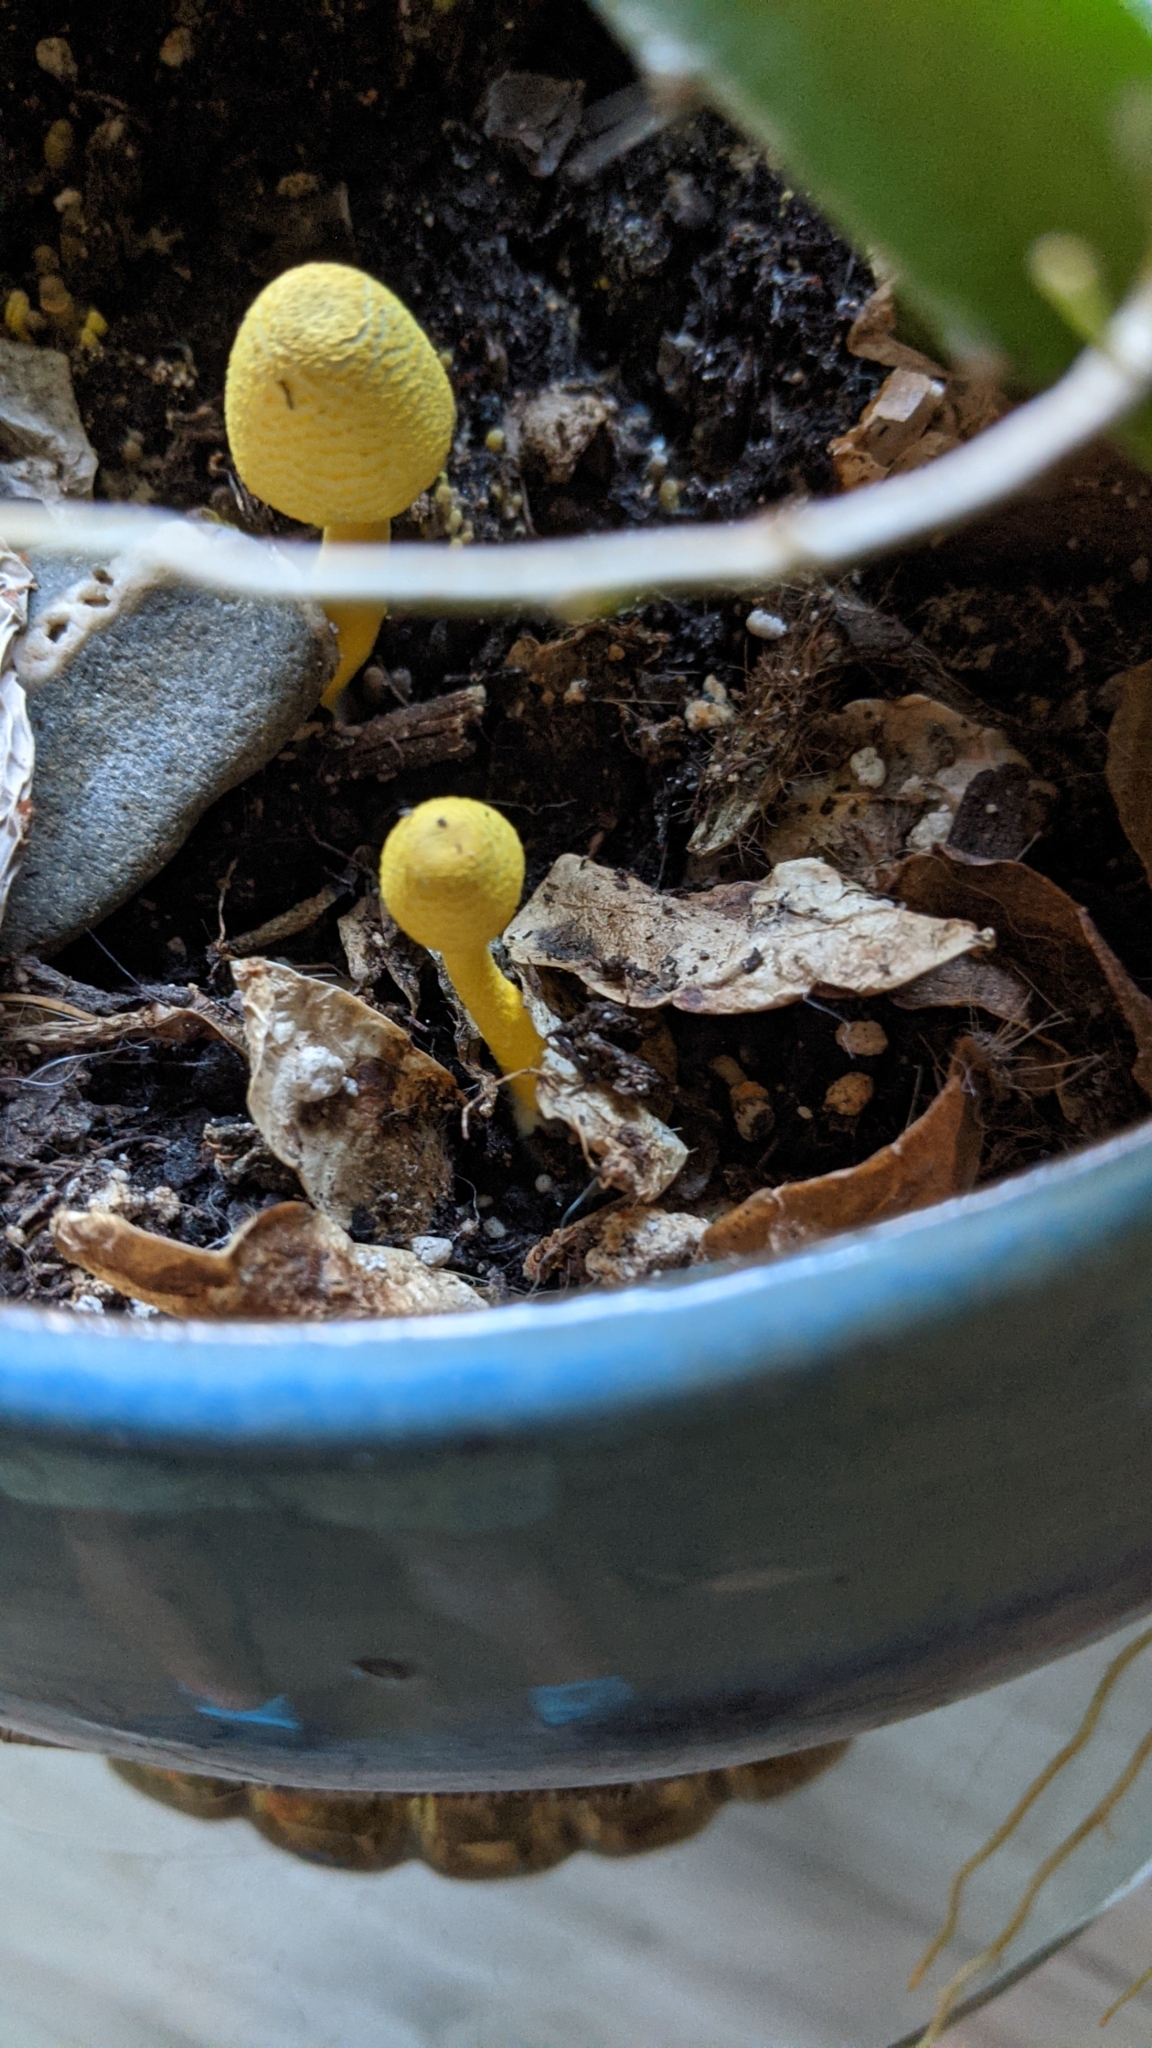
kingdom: Fungi
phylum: Basidiomycota
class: Agaricomycetes
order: Agaricales
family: Agaricaceae
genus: Leucocoprinus
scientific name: Leucocoprinus birnbaumii
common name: Plantpot dapperling
